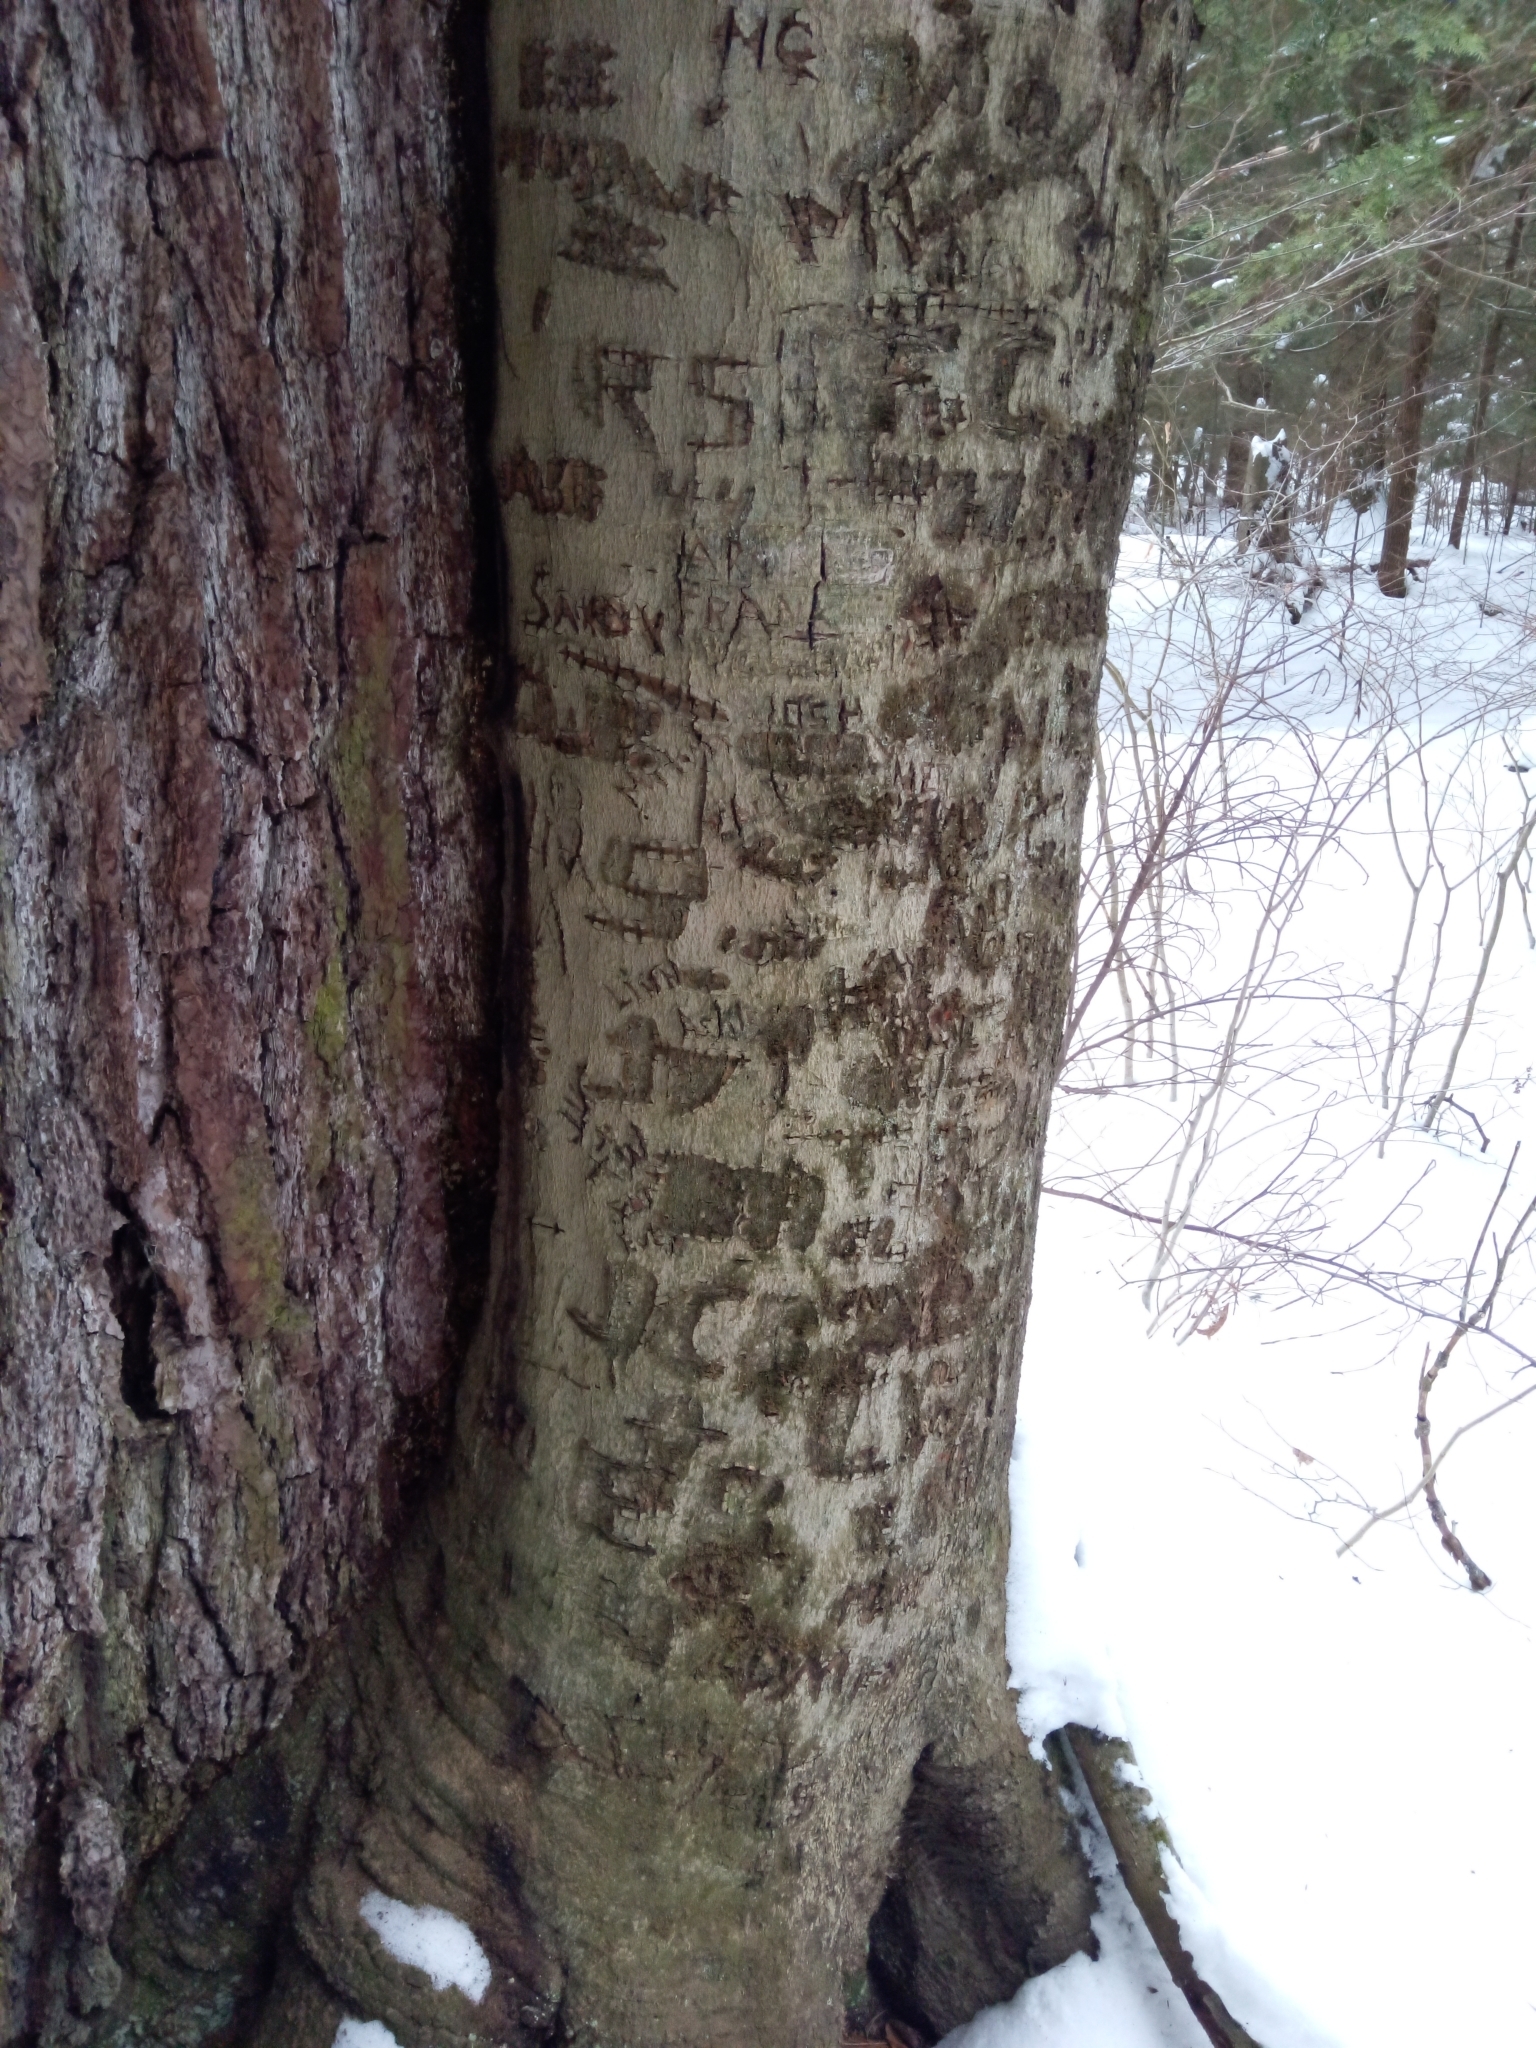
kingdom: Plantae
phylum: Tracheophyta
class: Magnoliopsida
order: Fagales
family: Fagaceae
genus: Fagus
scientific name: Fagus grandifolia
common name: American beech
